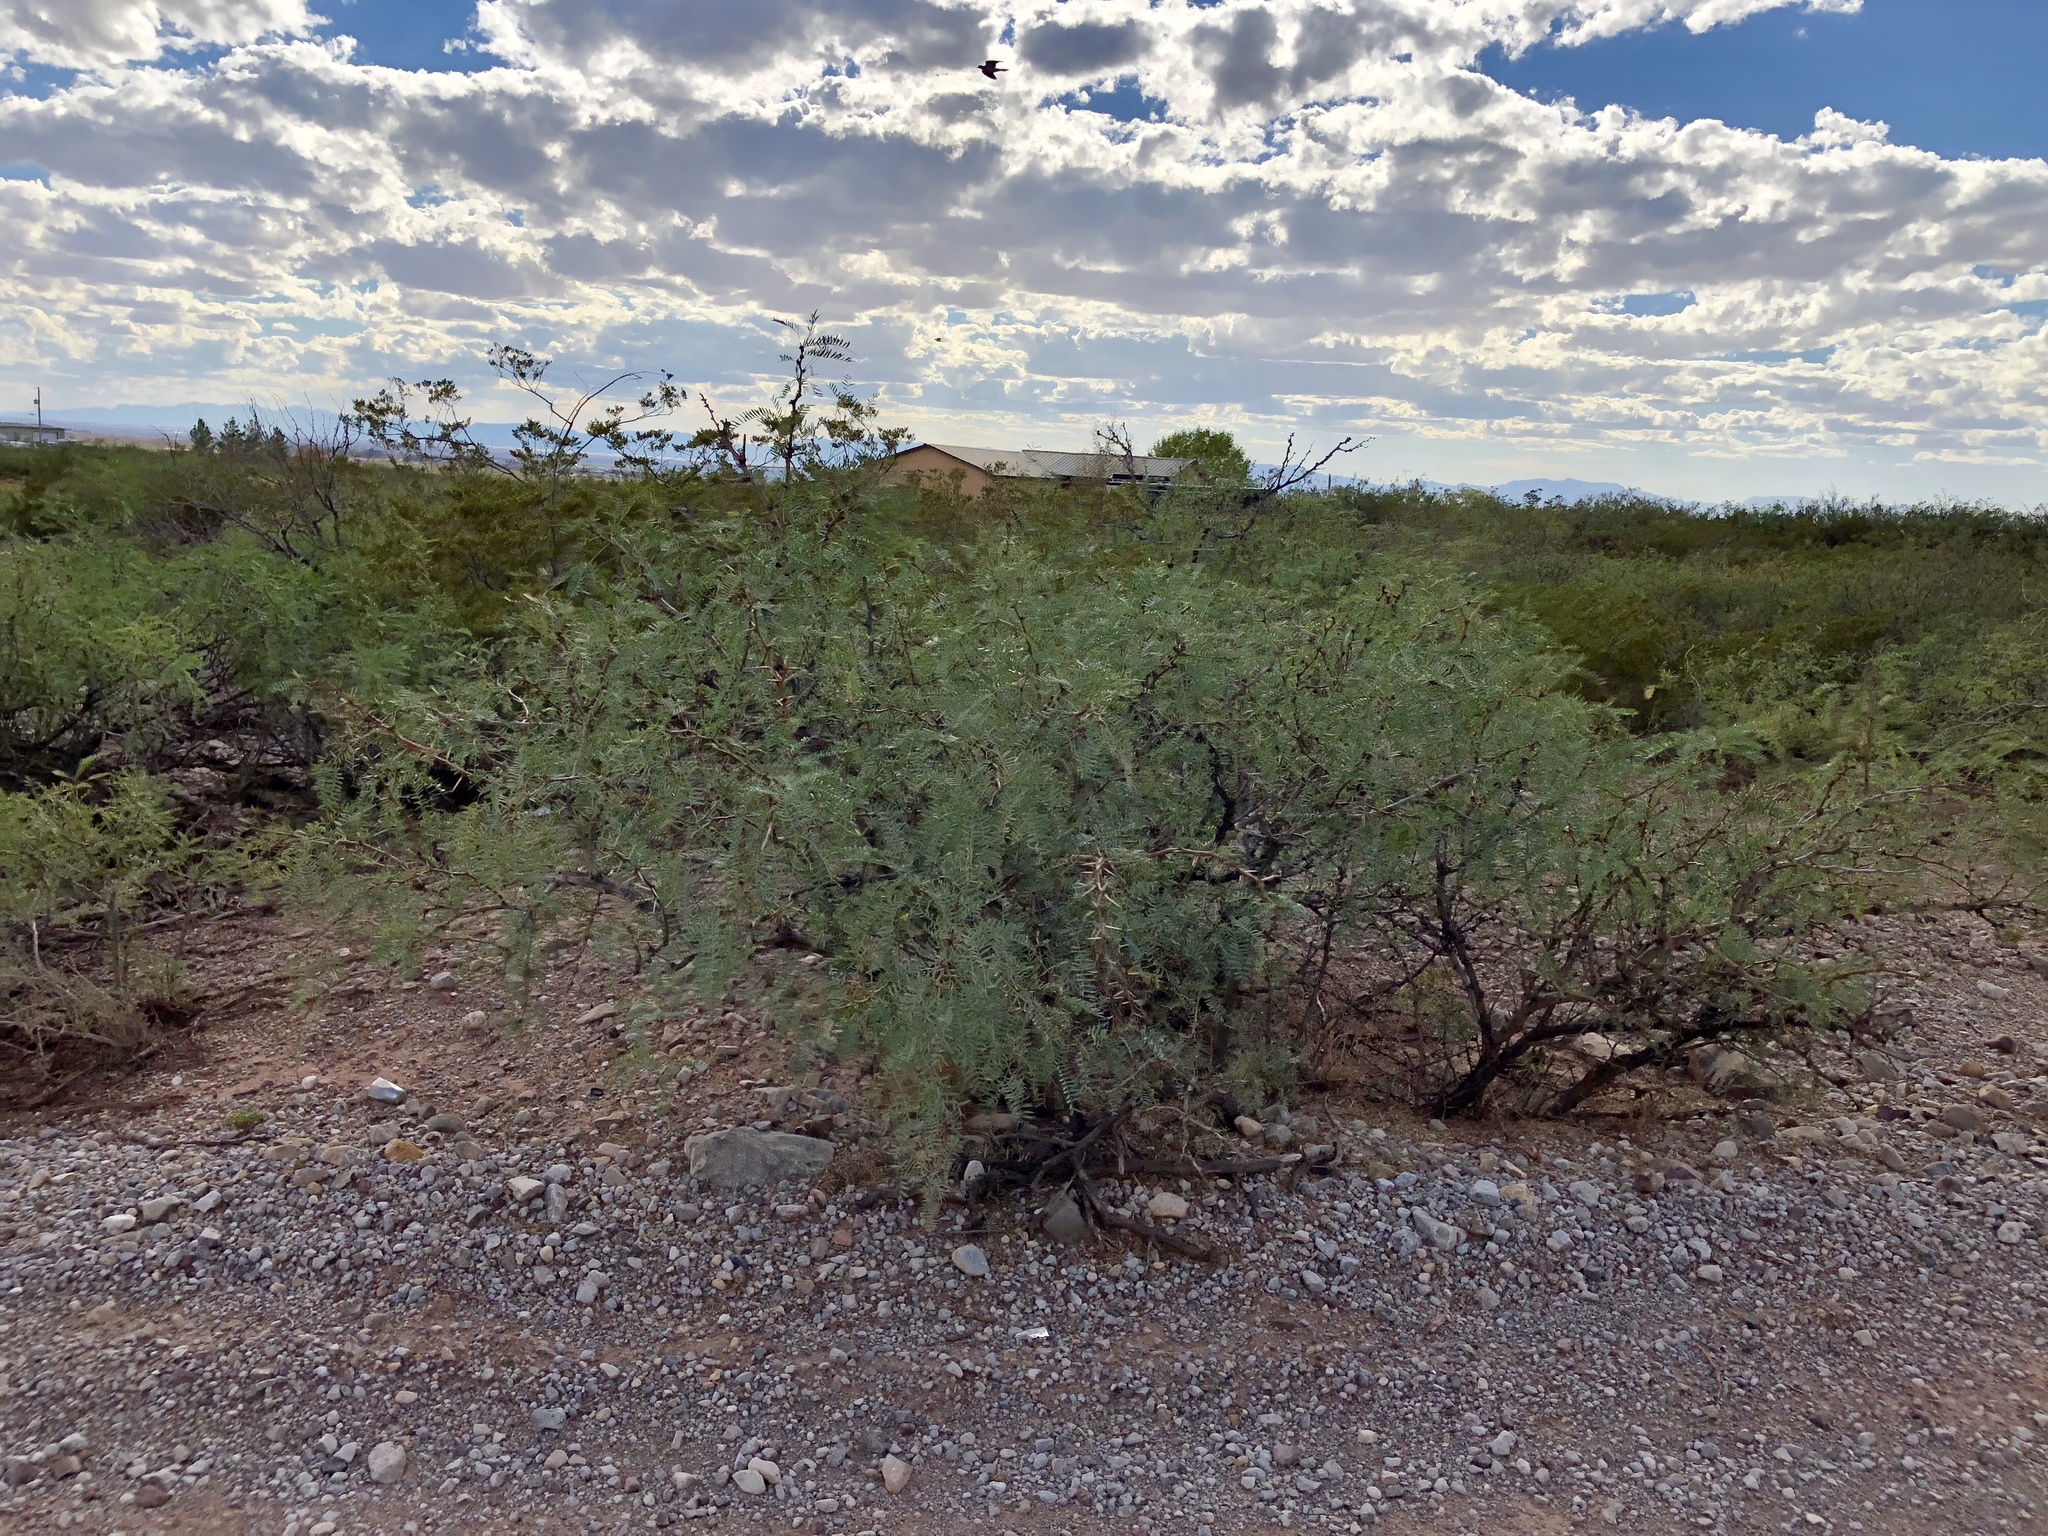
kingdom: Plantae
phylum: Tracheophyta
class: Magnoliopsida
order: Fabales
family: Fabaceae
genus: Prosopis
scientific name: Prosopis glandulosa
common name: Honey mesquite
